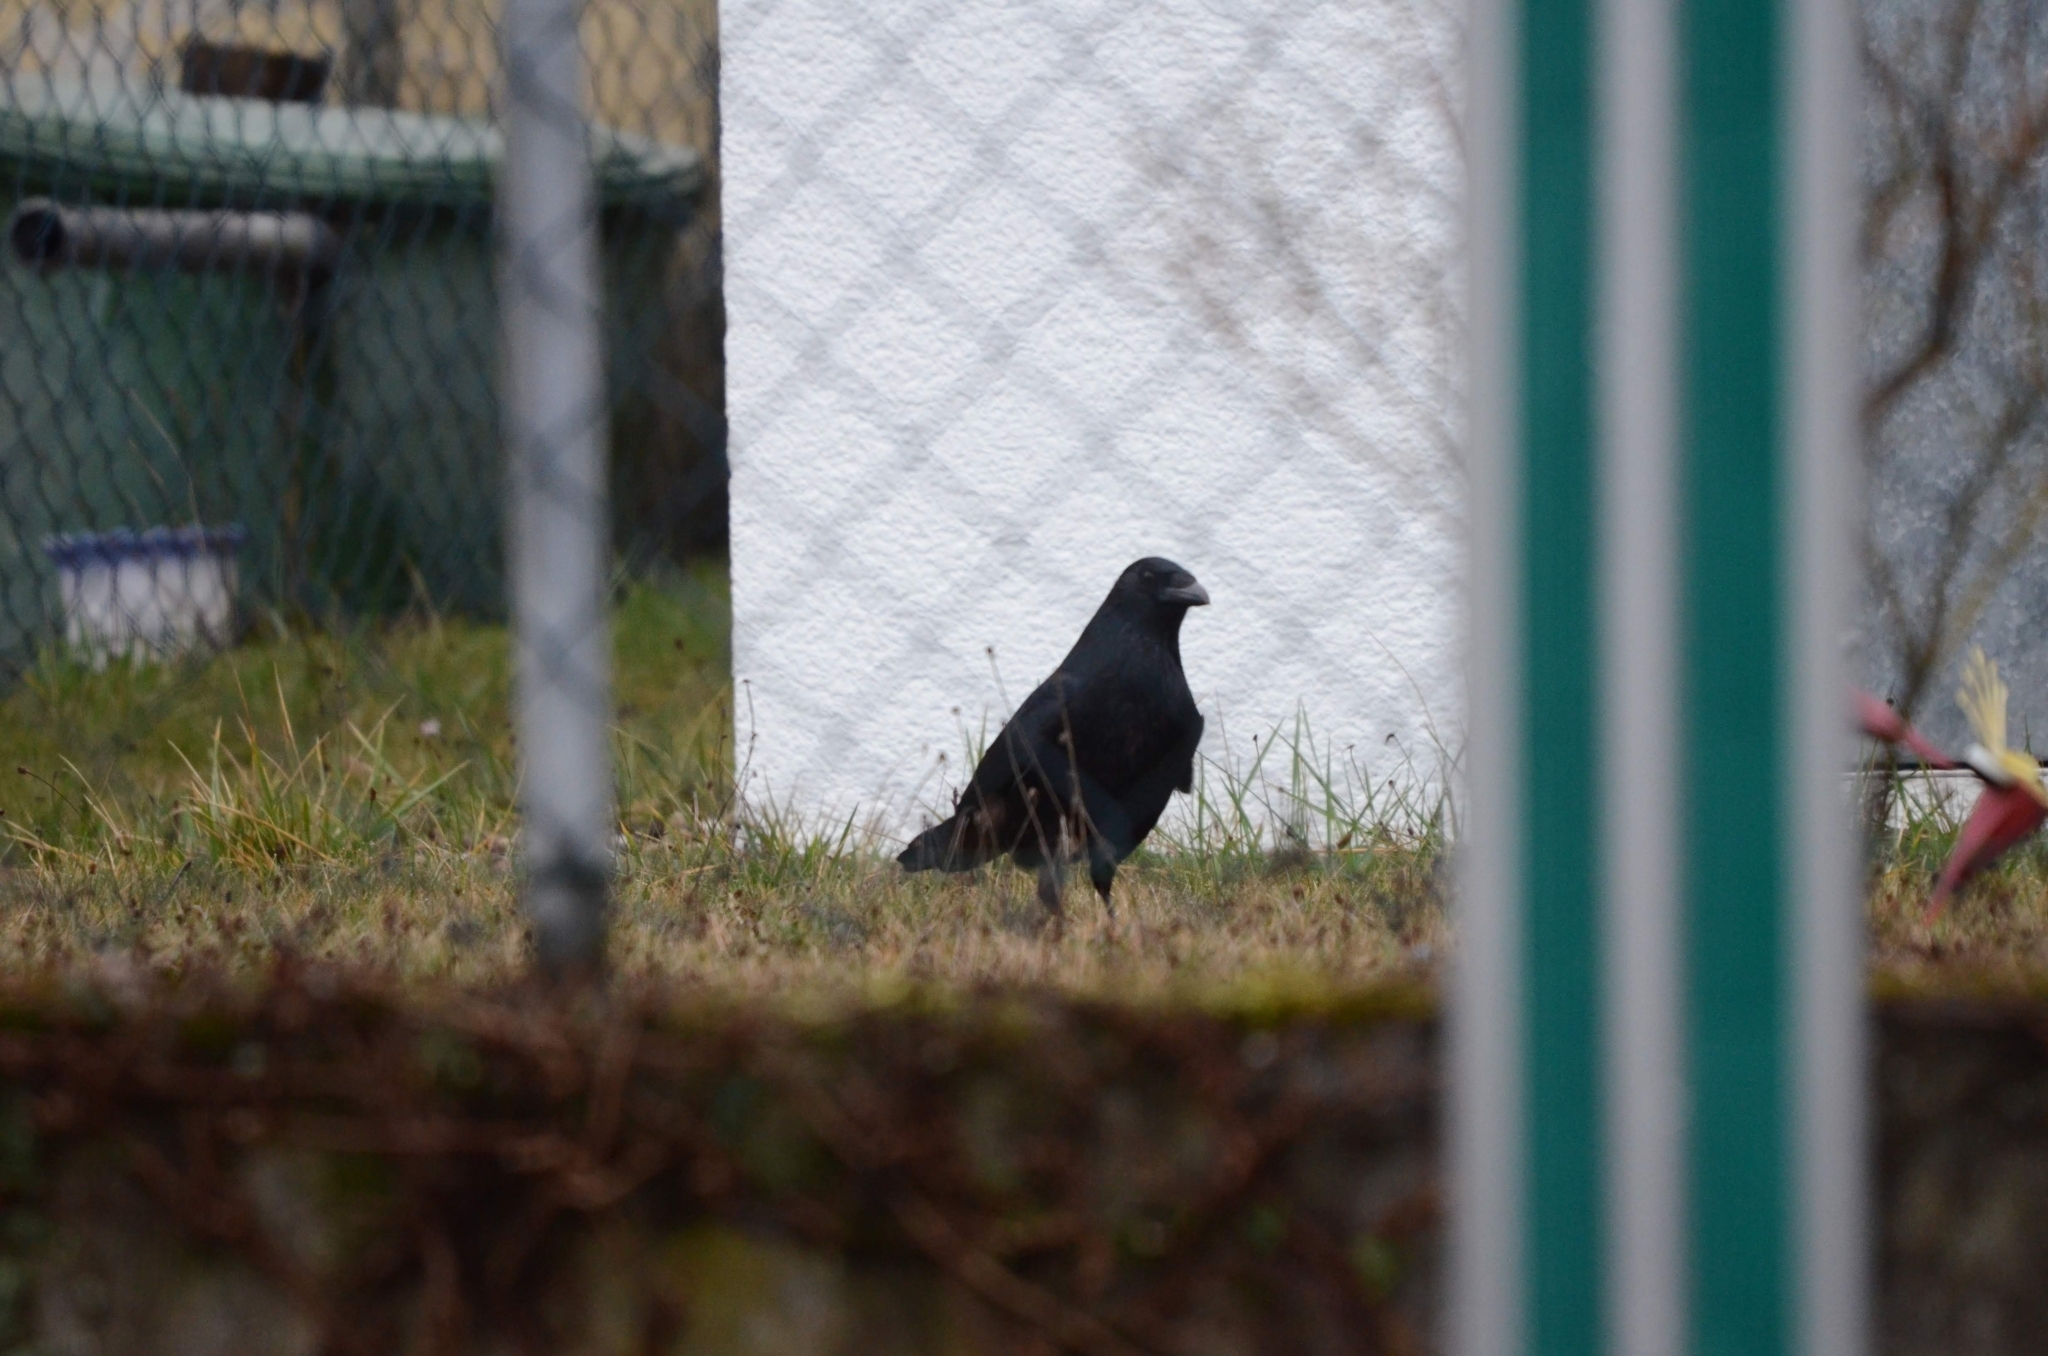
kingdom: Animalia
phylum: Chordata
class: Aves
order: Passeriformes
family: Corvidae
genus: Corvus
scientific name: Corvus corone
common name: Carrion crow
